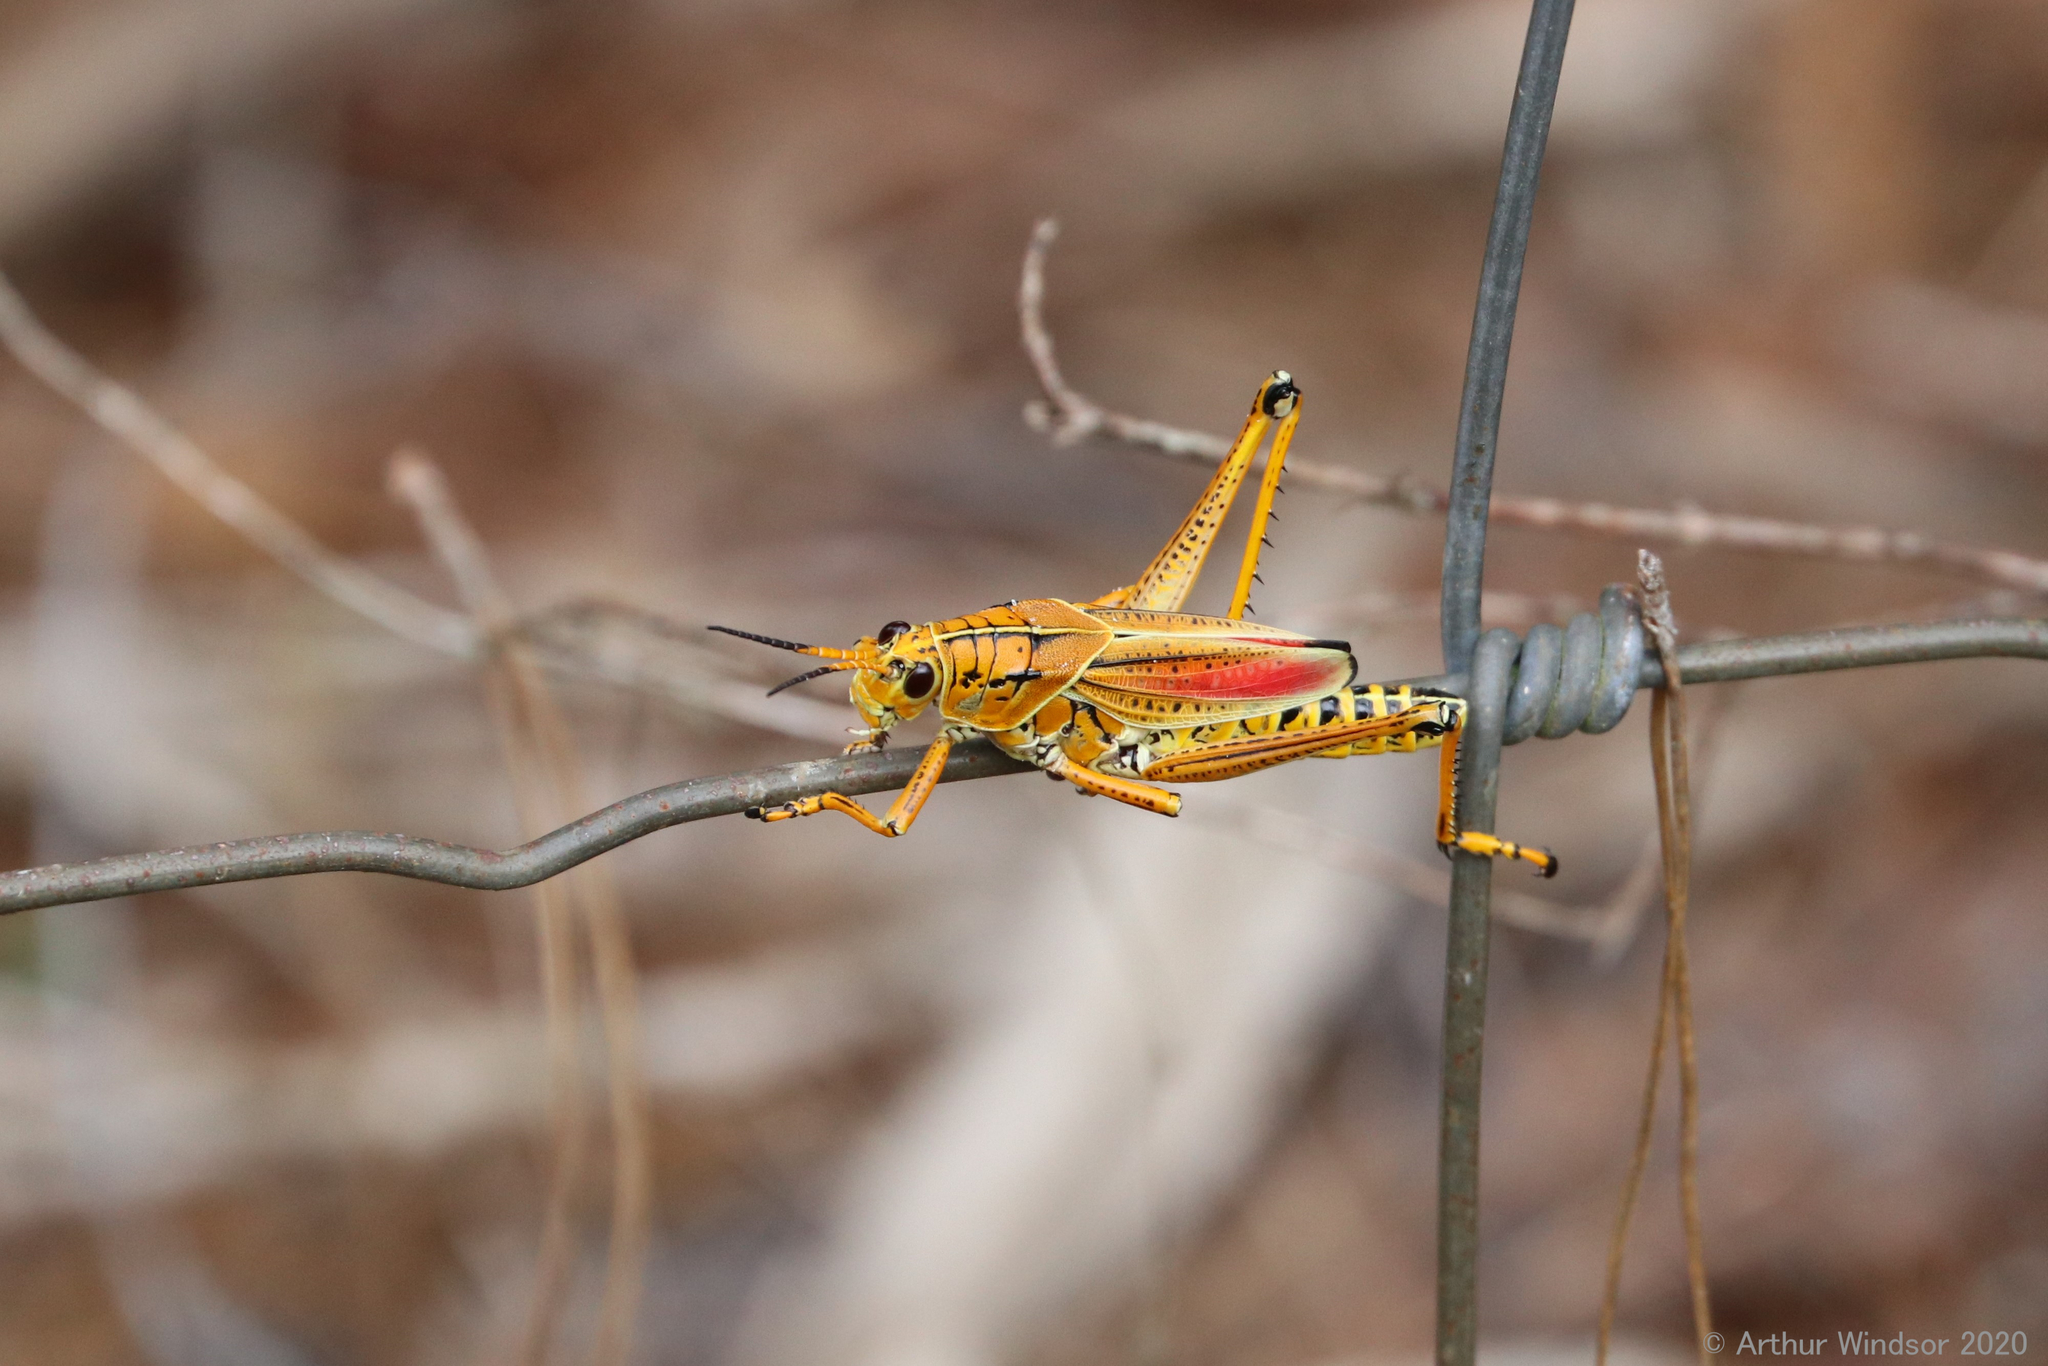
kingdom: Animalia
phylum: Arthropoda
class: Insecta
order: Orthoptera
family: Romaleidae
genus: Romalea
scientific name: Romalea microptera
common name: Eastern lubber grasshopper
